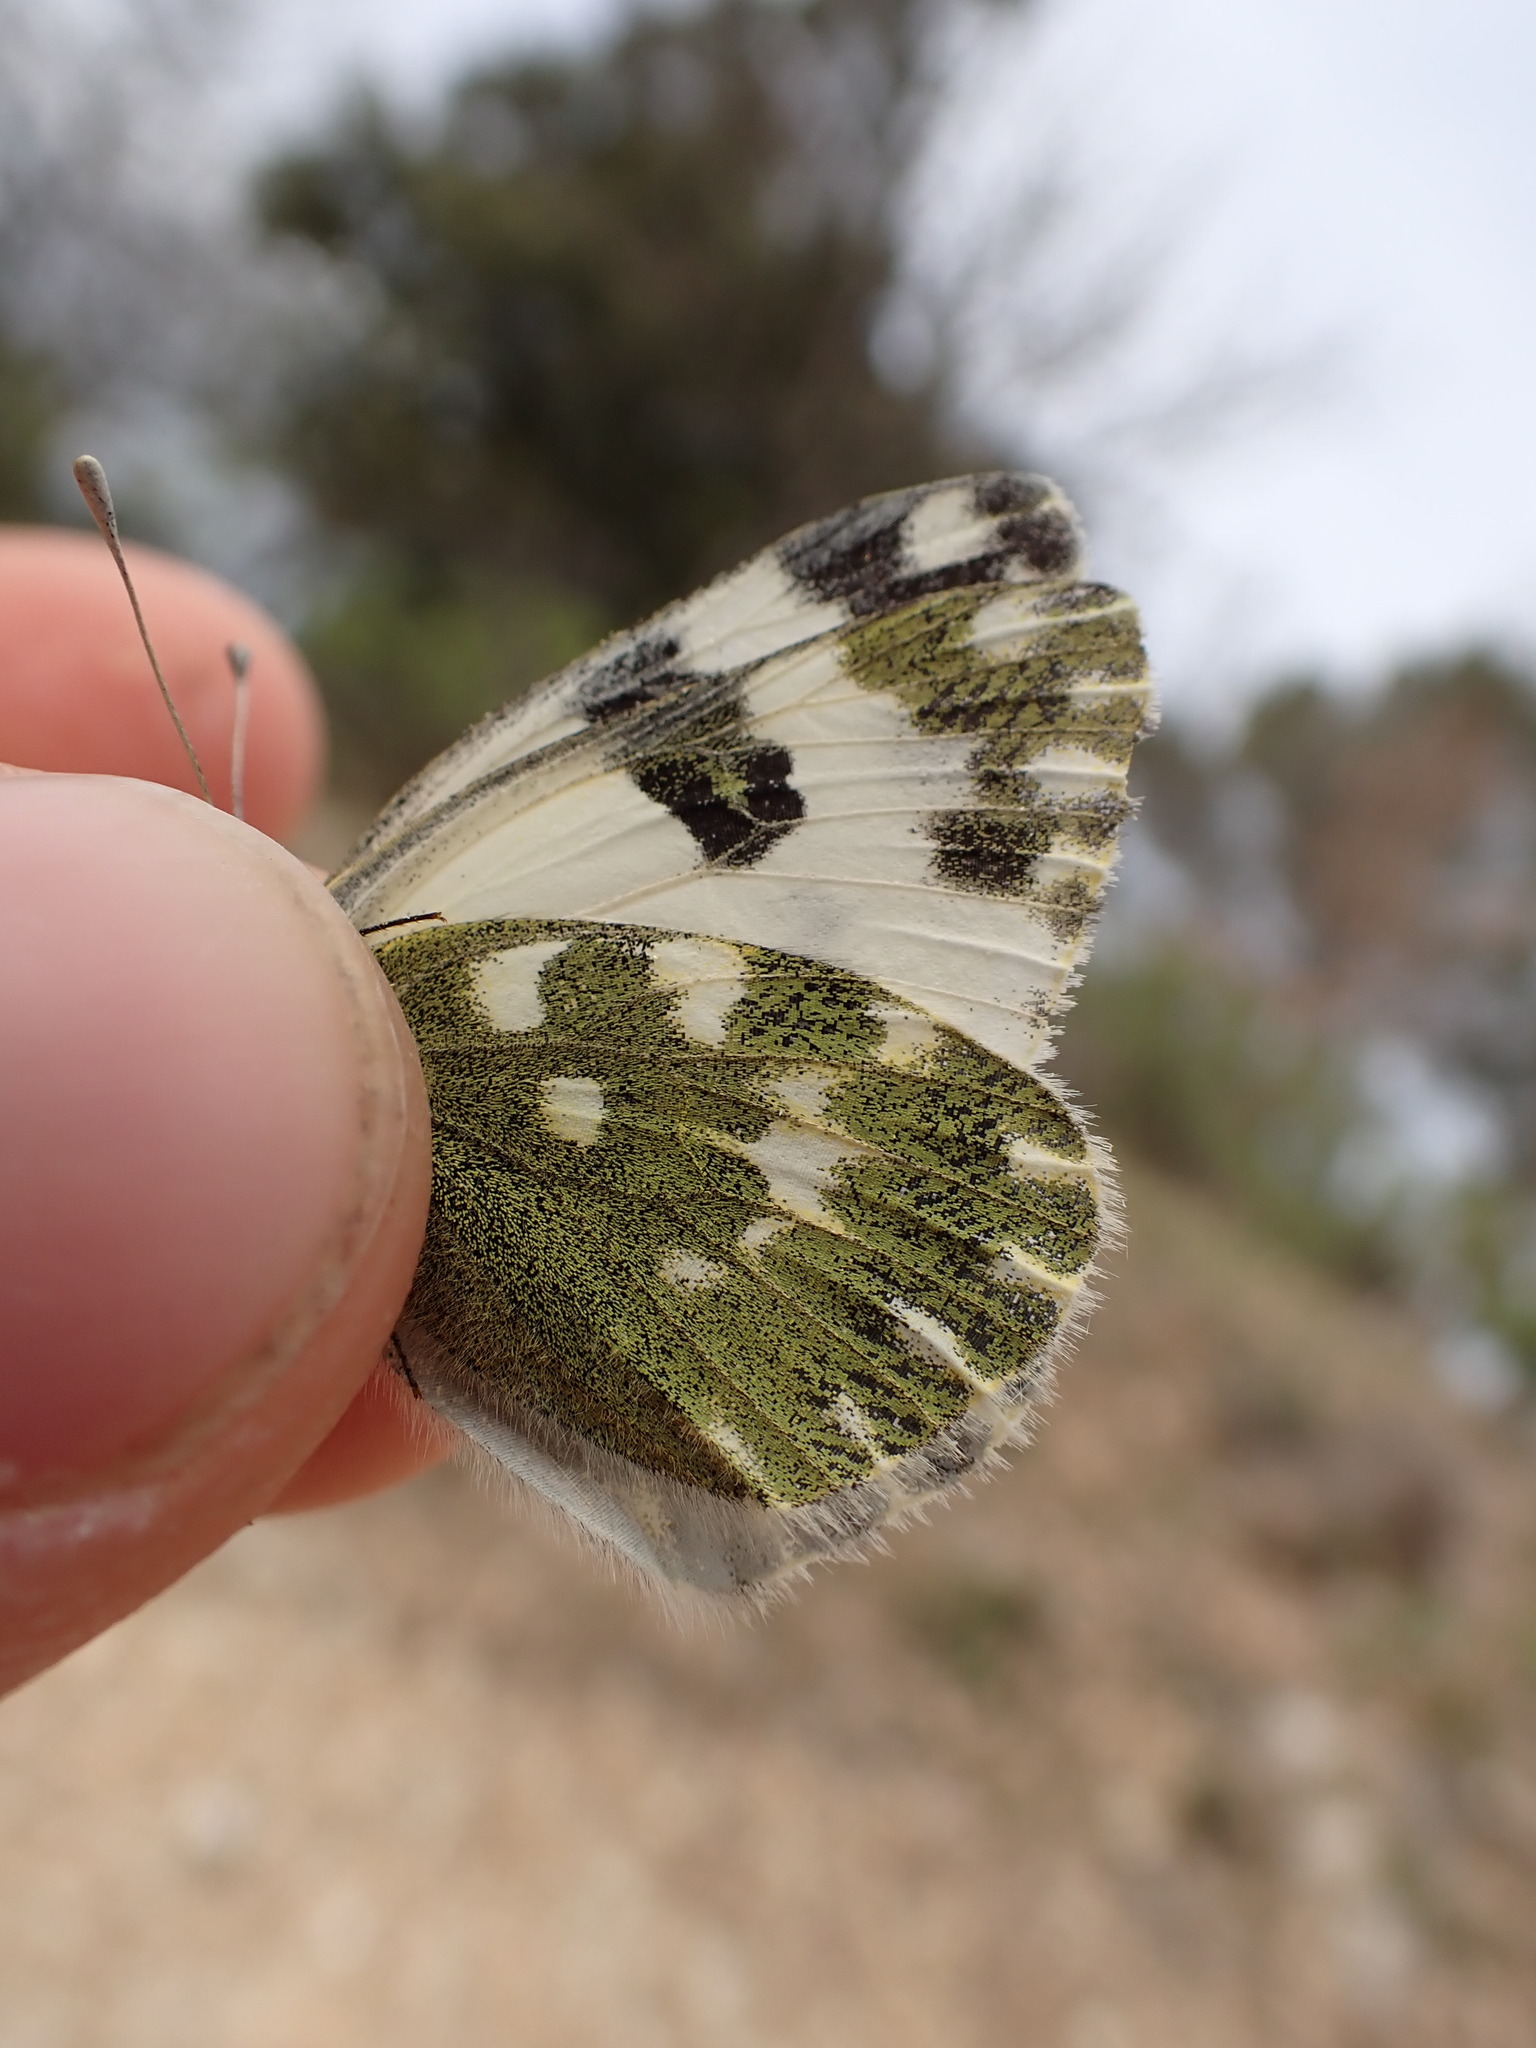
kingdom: Animalia
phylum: Arthropoda
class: Insecta
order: Lepidoptera
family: Pieridae
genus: Pontia
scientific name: Pontia daplidice
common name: Bath white
